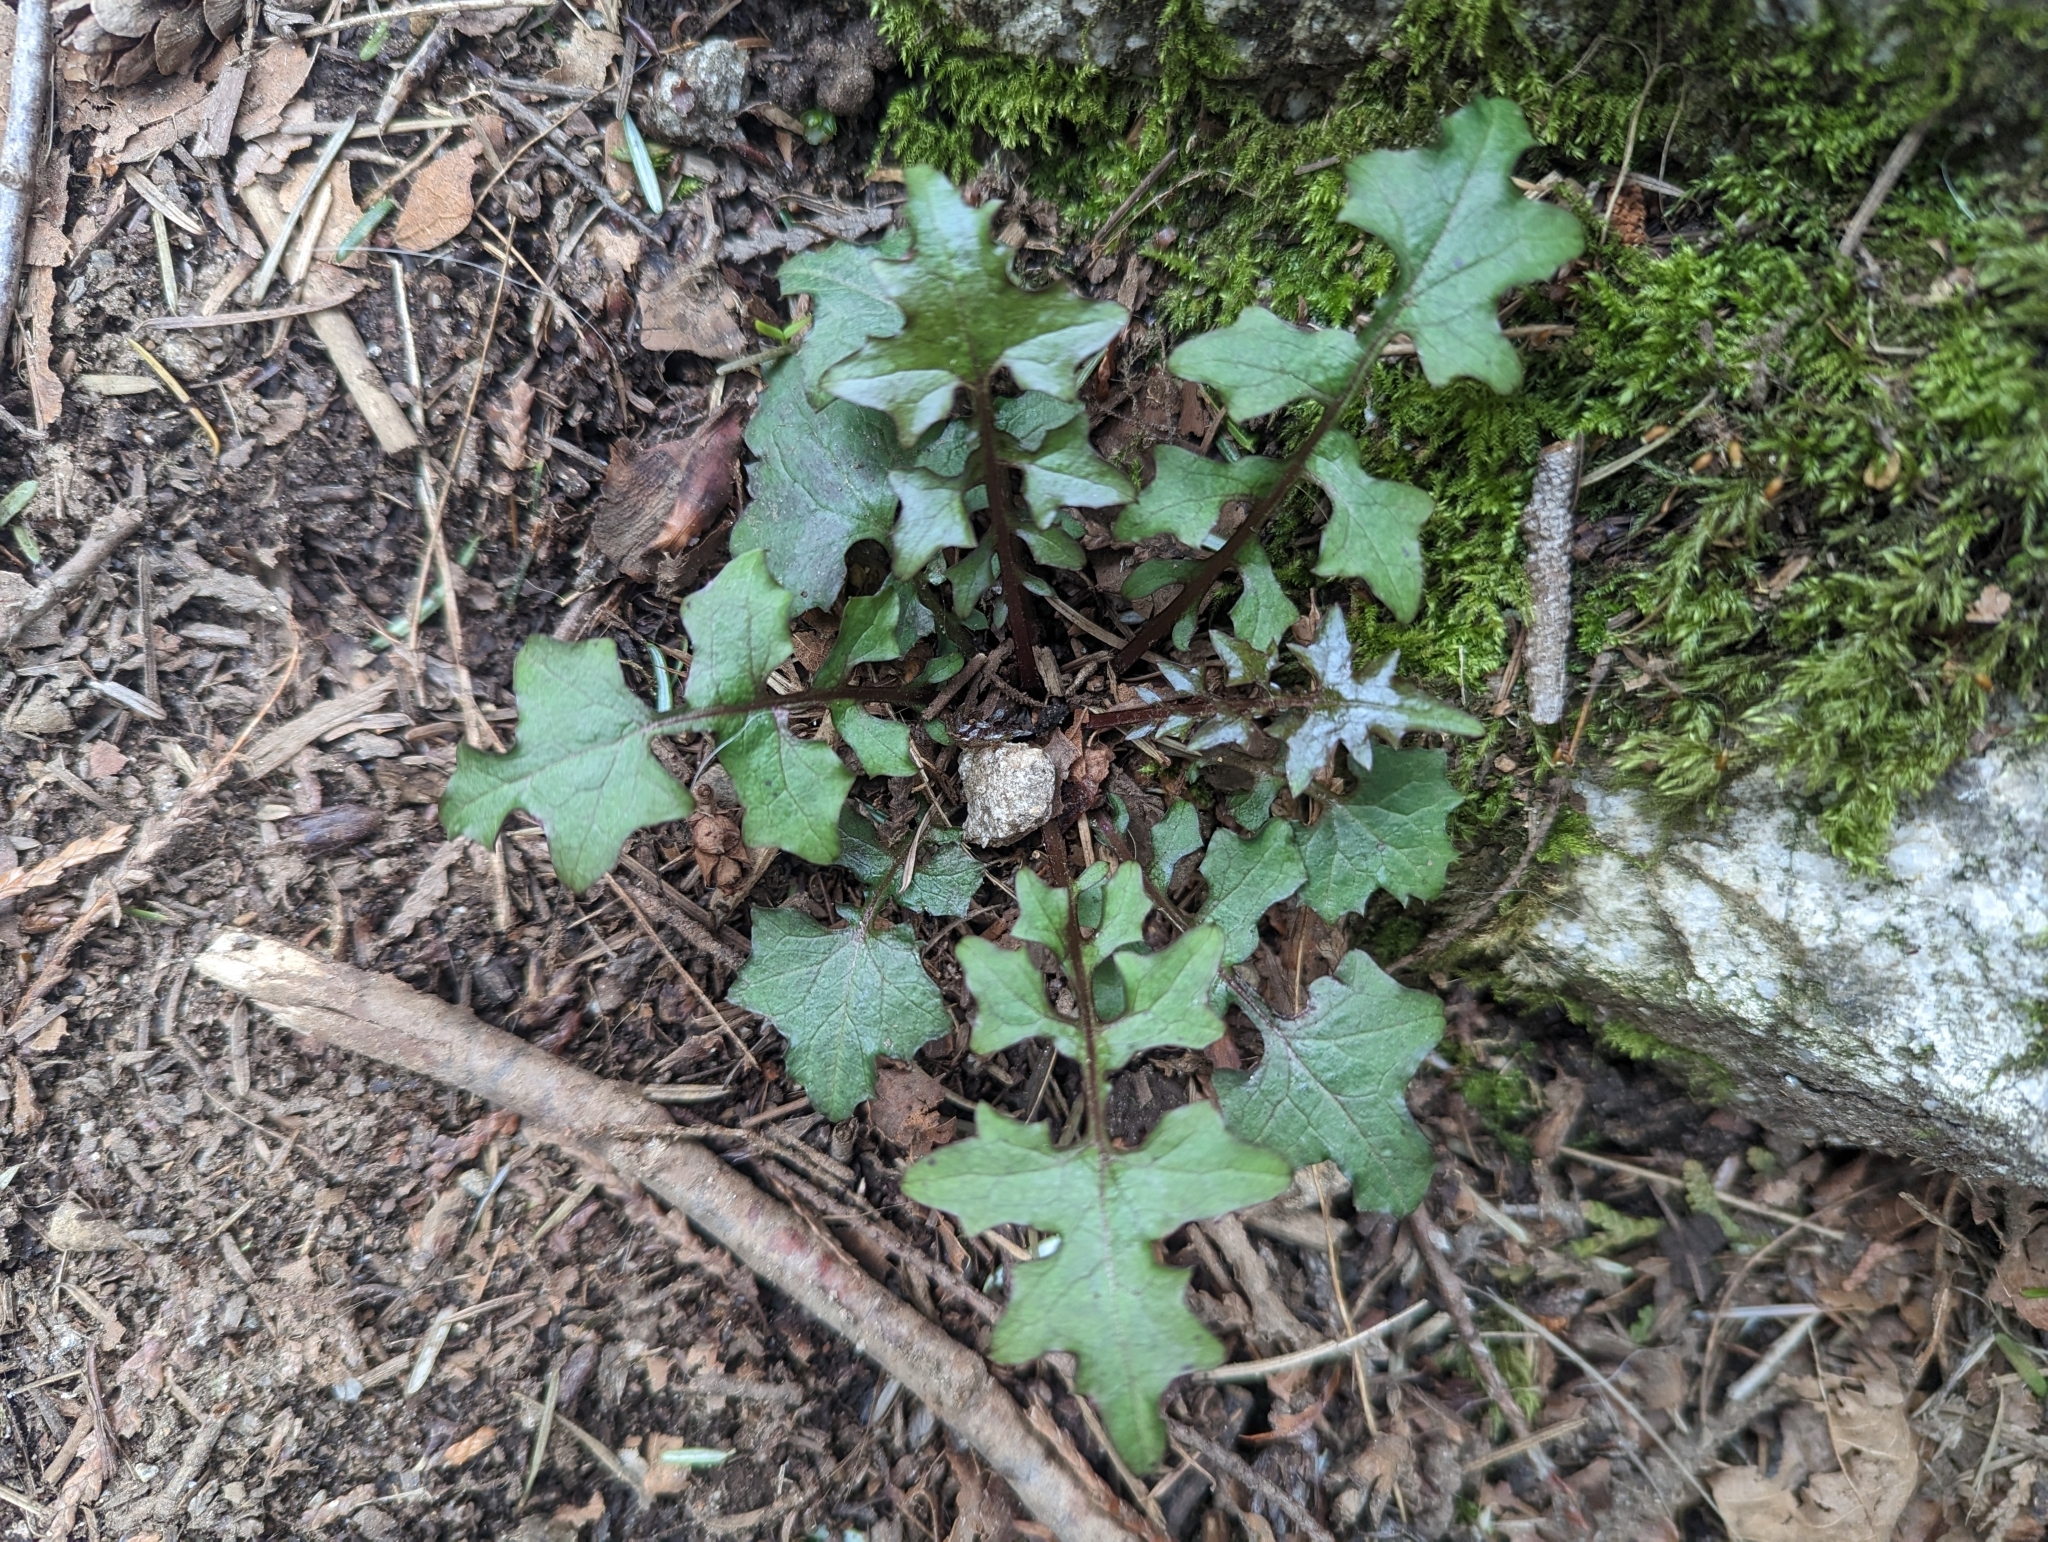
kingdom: Plantae
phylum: Tracheophyta
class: Magnoliopsida
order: Asterales
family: Asteraceae
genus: Mycelis
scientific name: Mycelis muralis
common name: Wall lettuce
